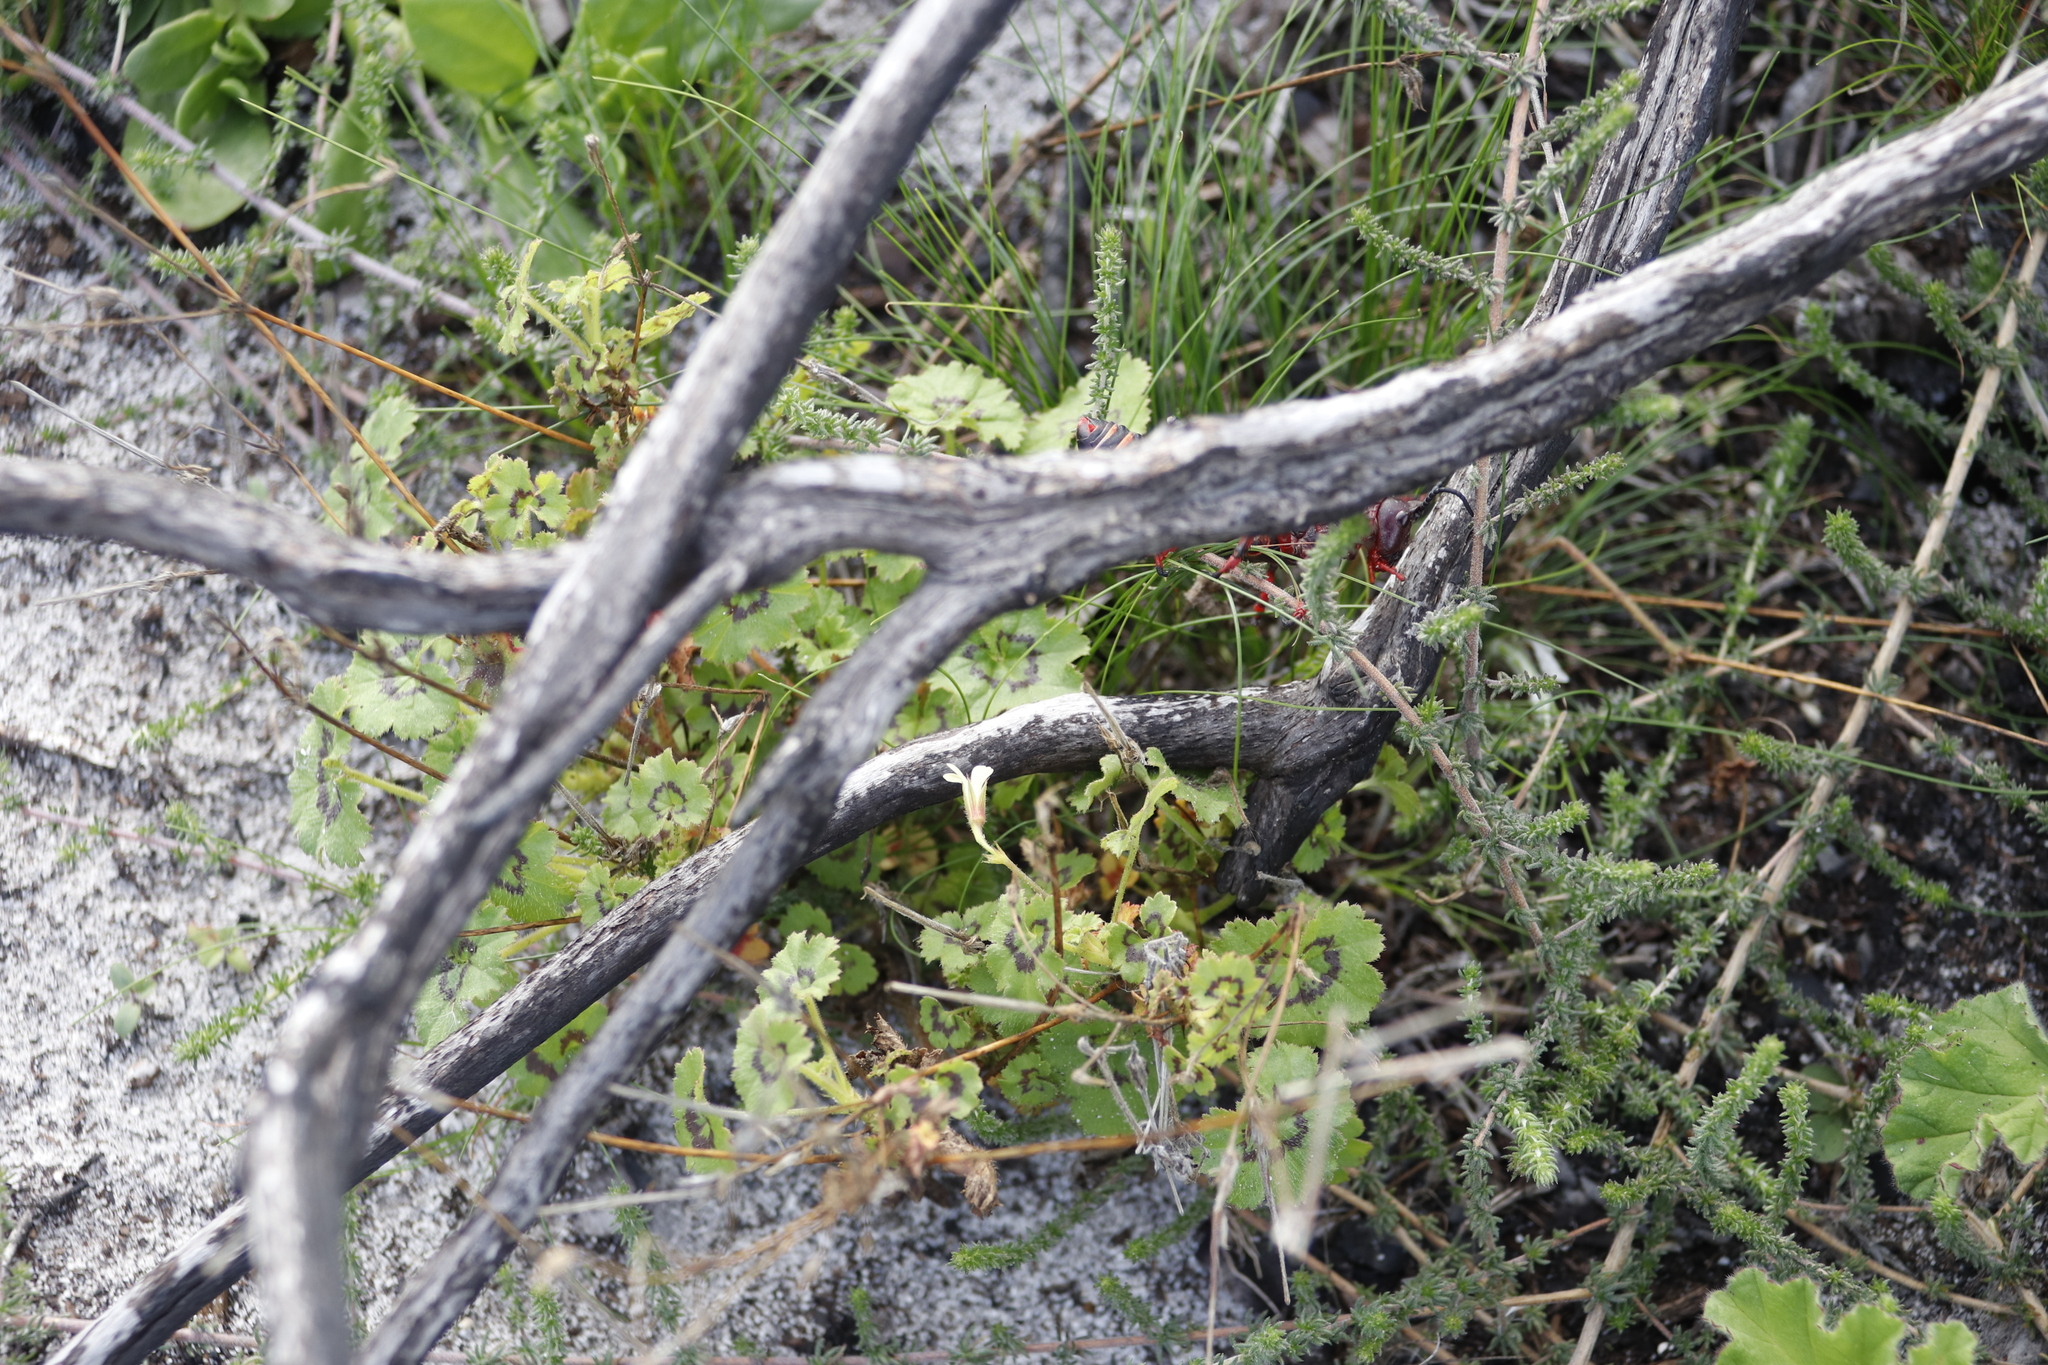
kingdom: Plantae
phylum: Tracheophyta
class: Magnoliopsida
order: Geraniales
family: Geraniaceae
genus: Pelargonium
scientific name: Pelargonium elongatum
